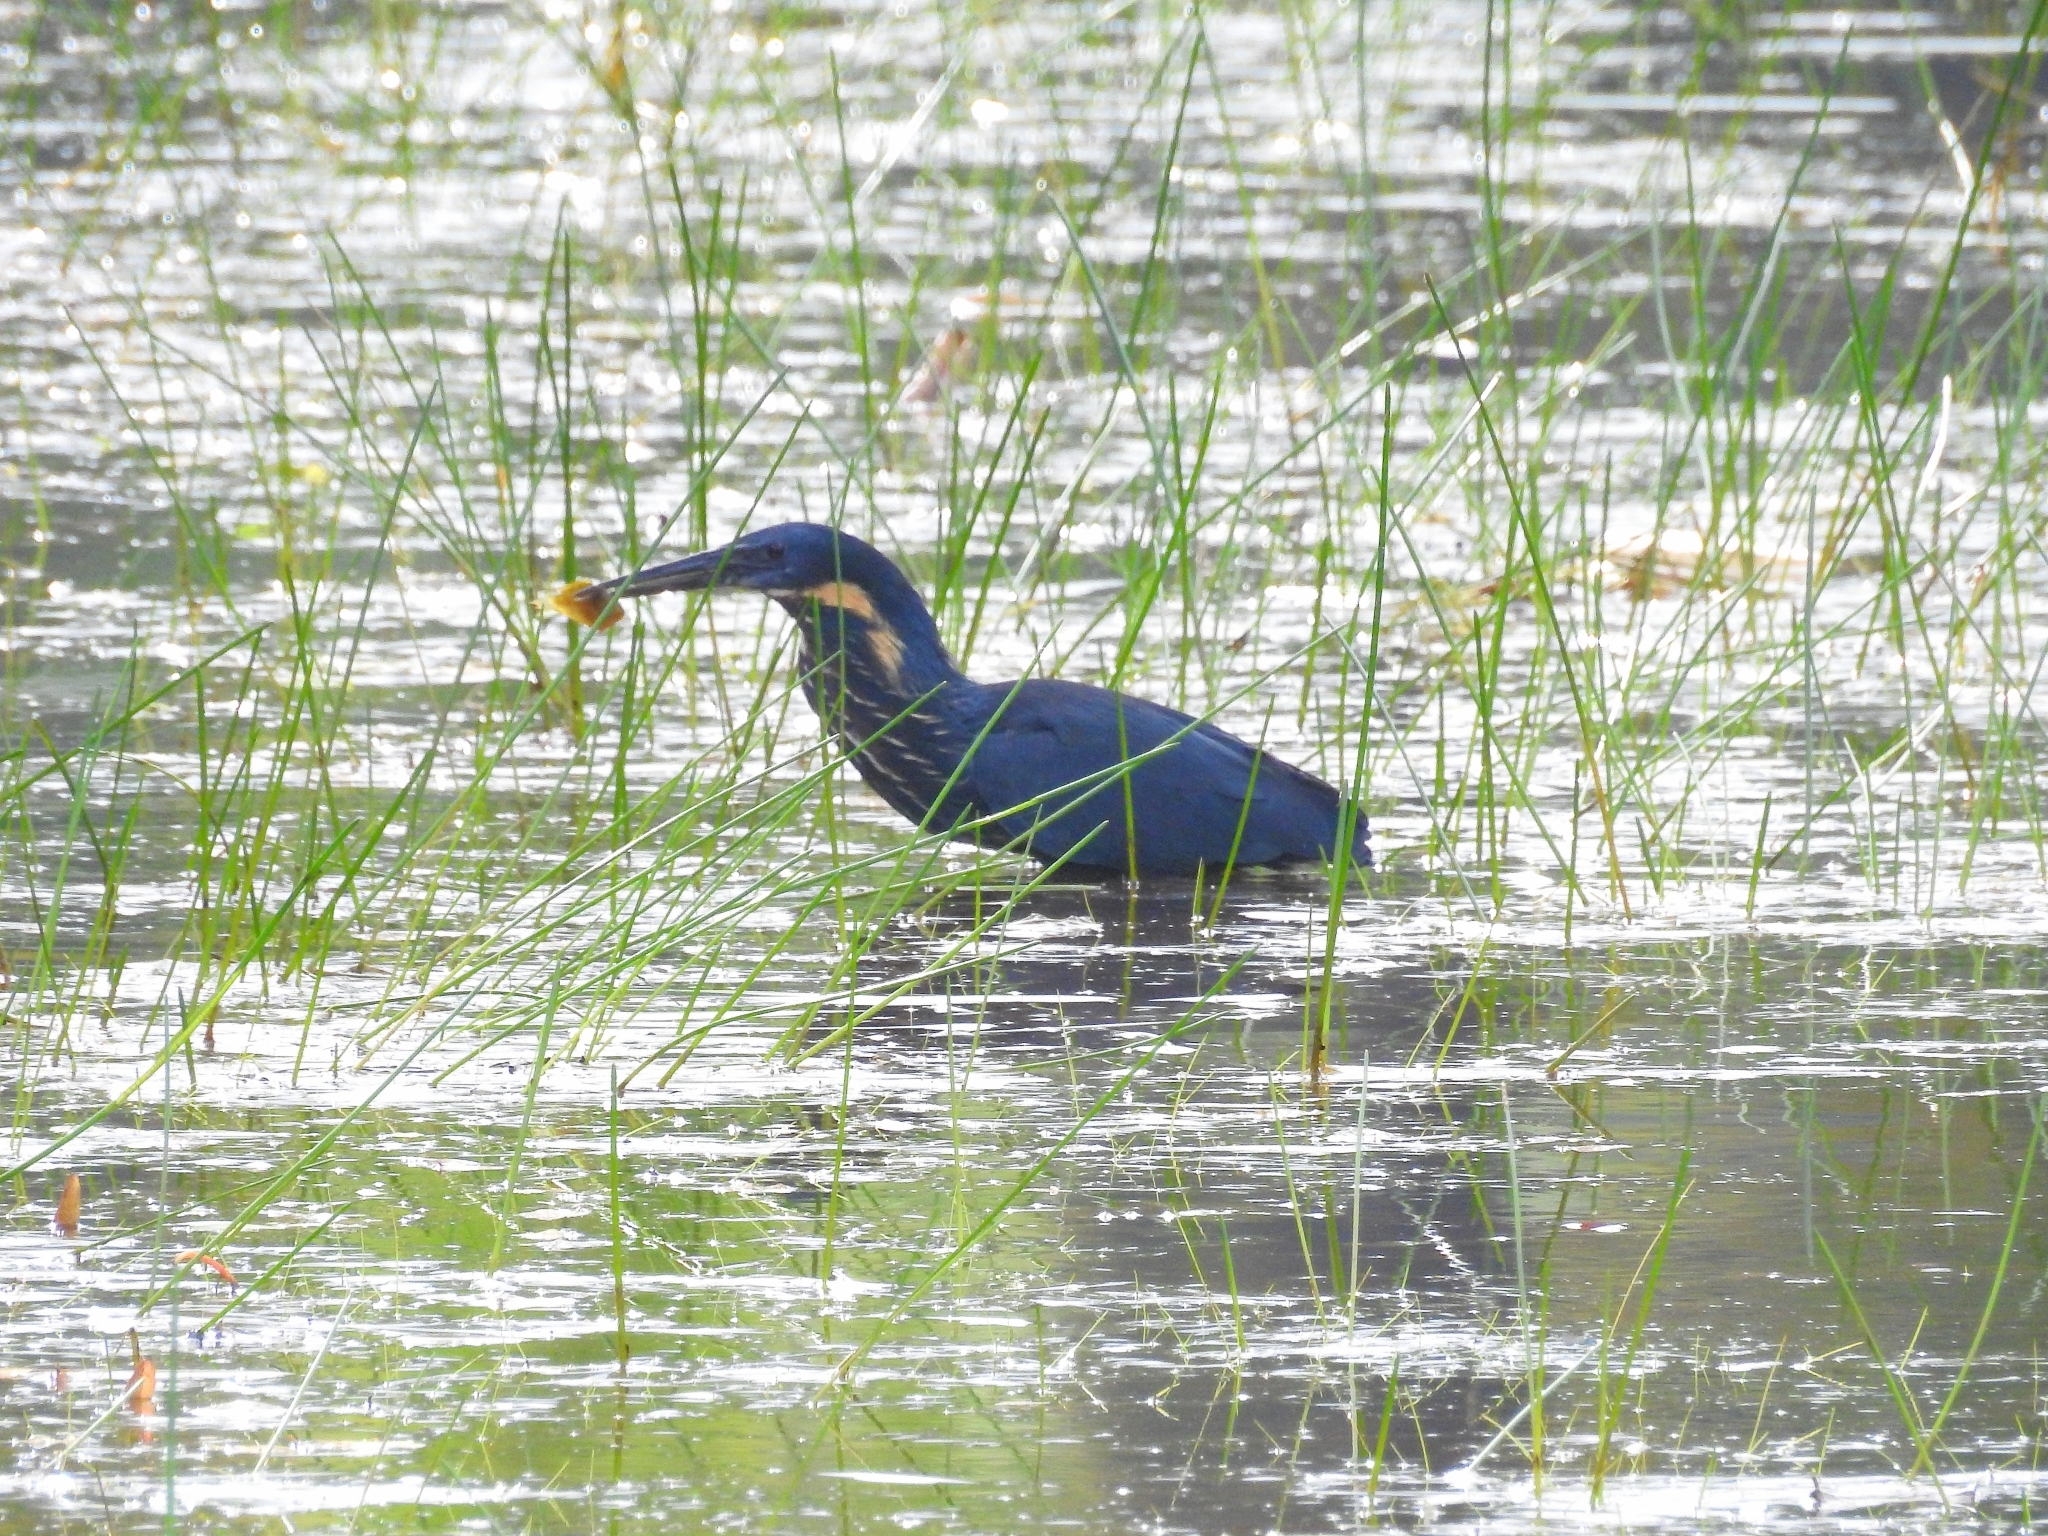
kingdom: Animalia
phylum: Chordata
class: Aves
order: Pelecaniformes
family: Ardeidae
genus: Dupetor
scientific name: Dupetor flavicollis
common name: Black bittern
